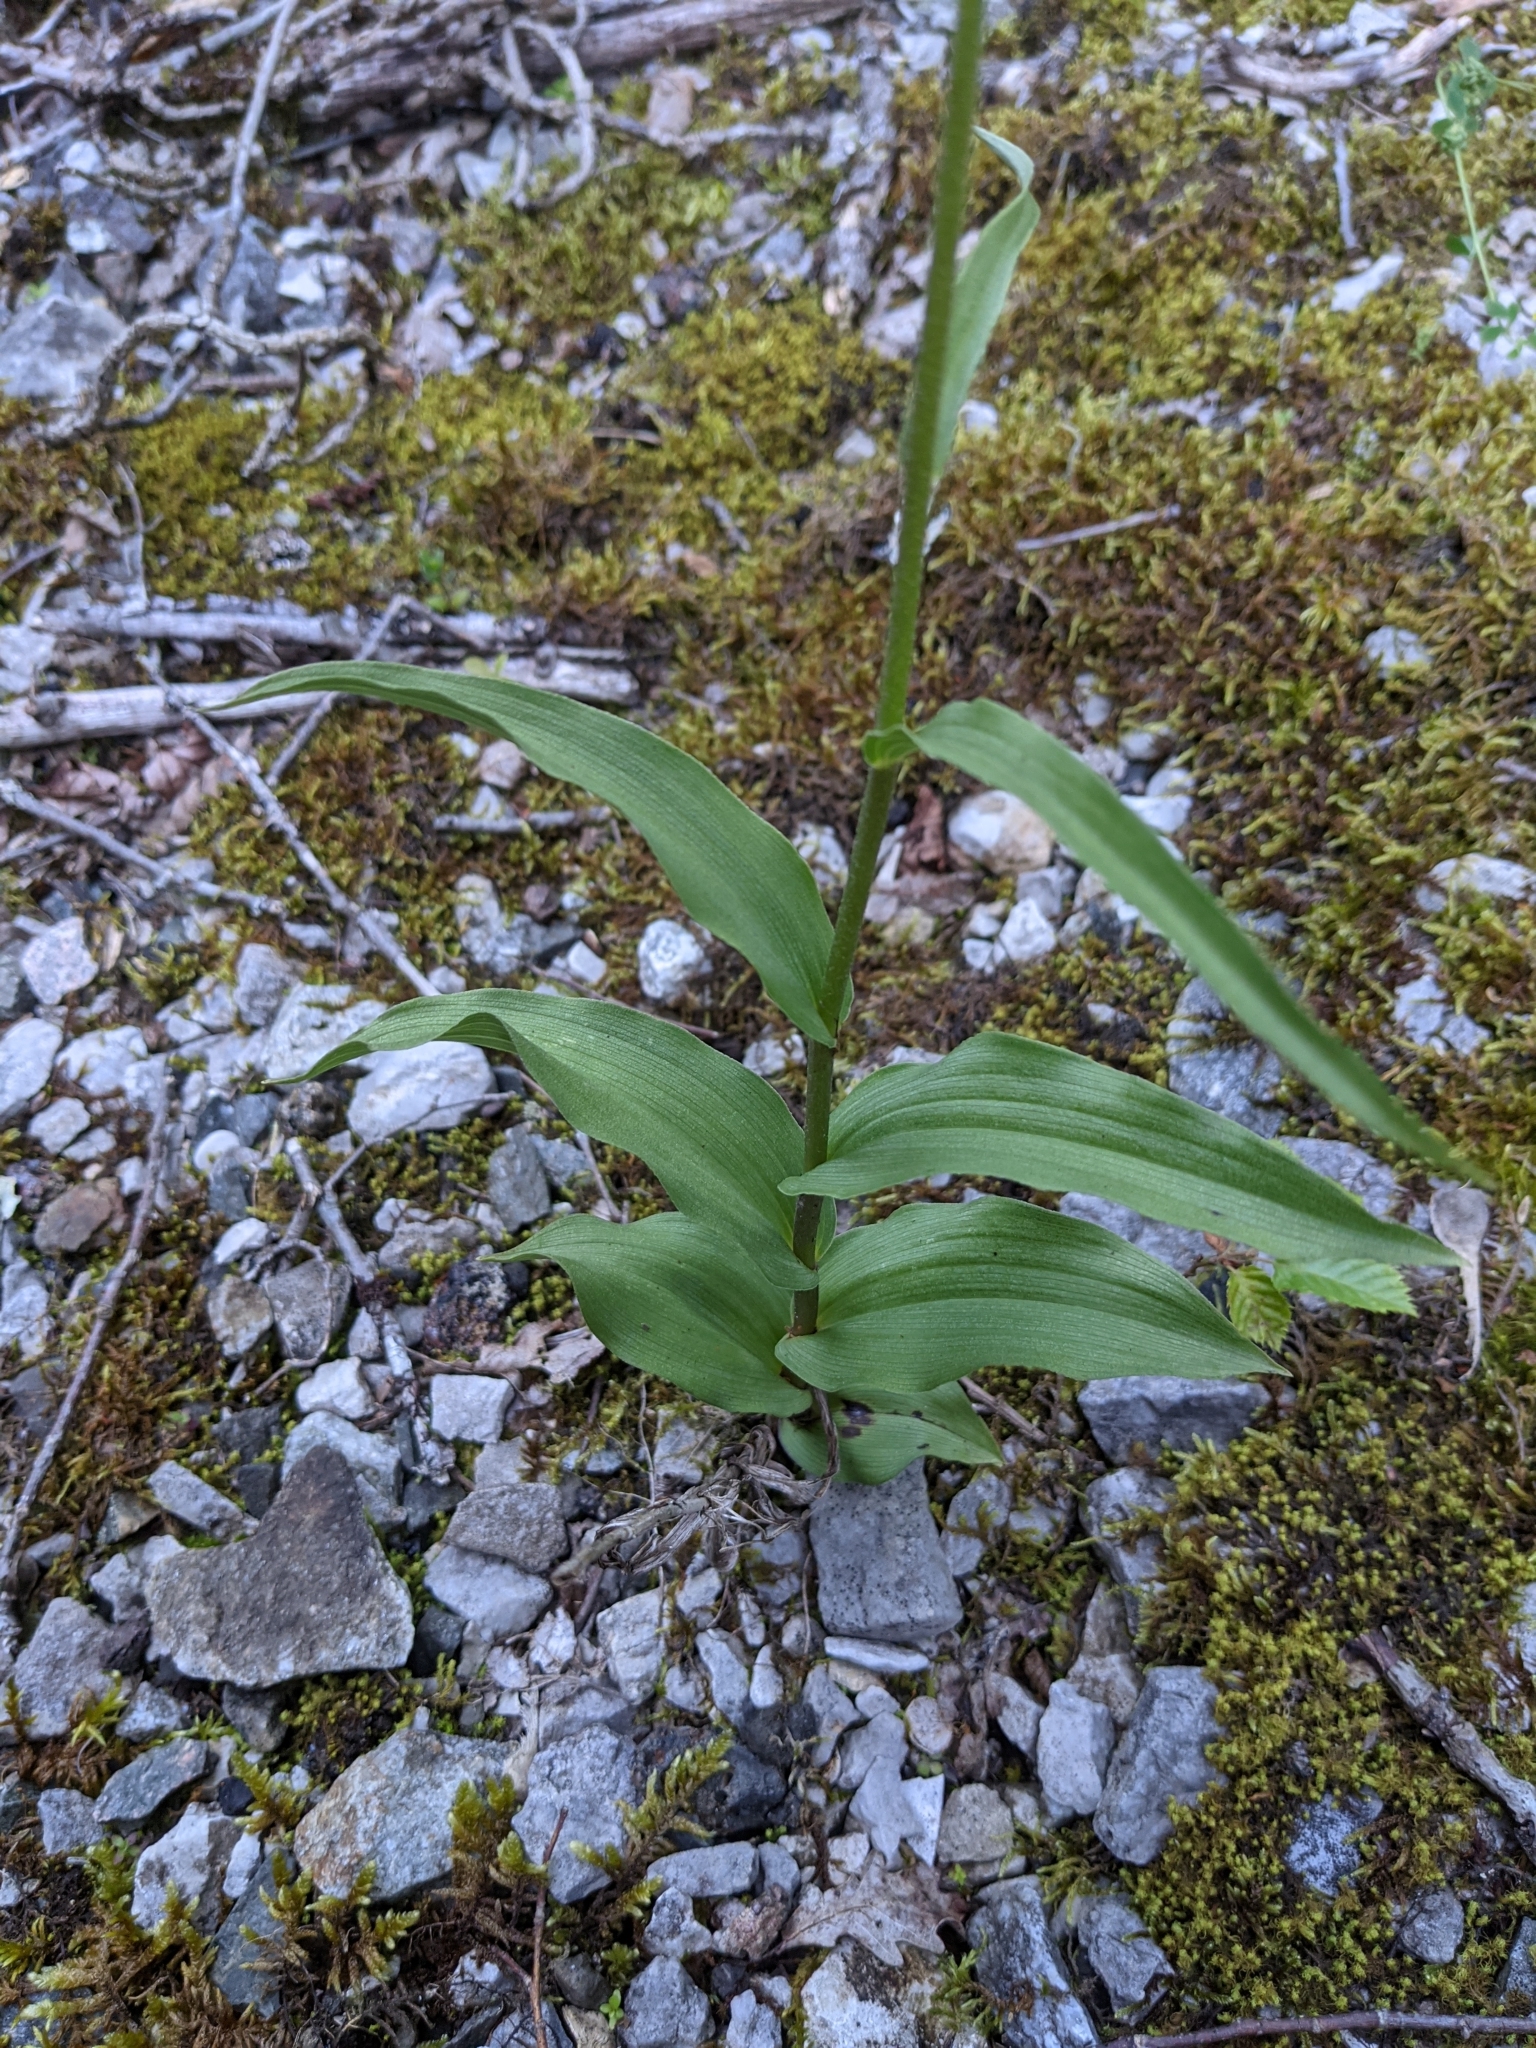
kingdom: Plantae
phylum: Tracheophyta
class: Liliopsida
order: Asparagales
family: Orchidaceae
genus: Epipactis
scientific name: Epipactis atrorubens
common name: Dark-red helleborine
